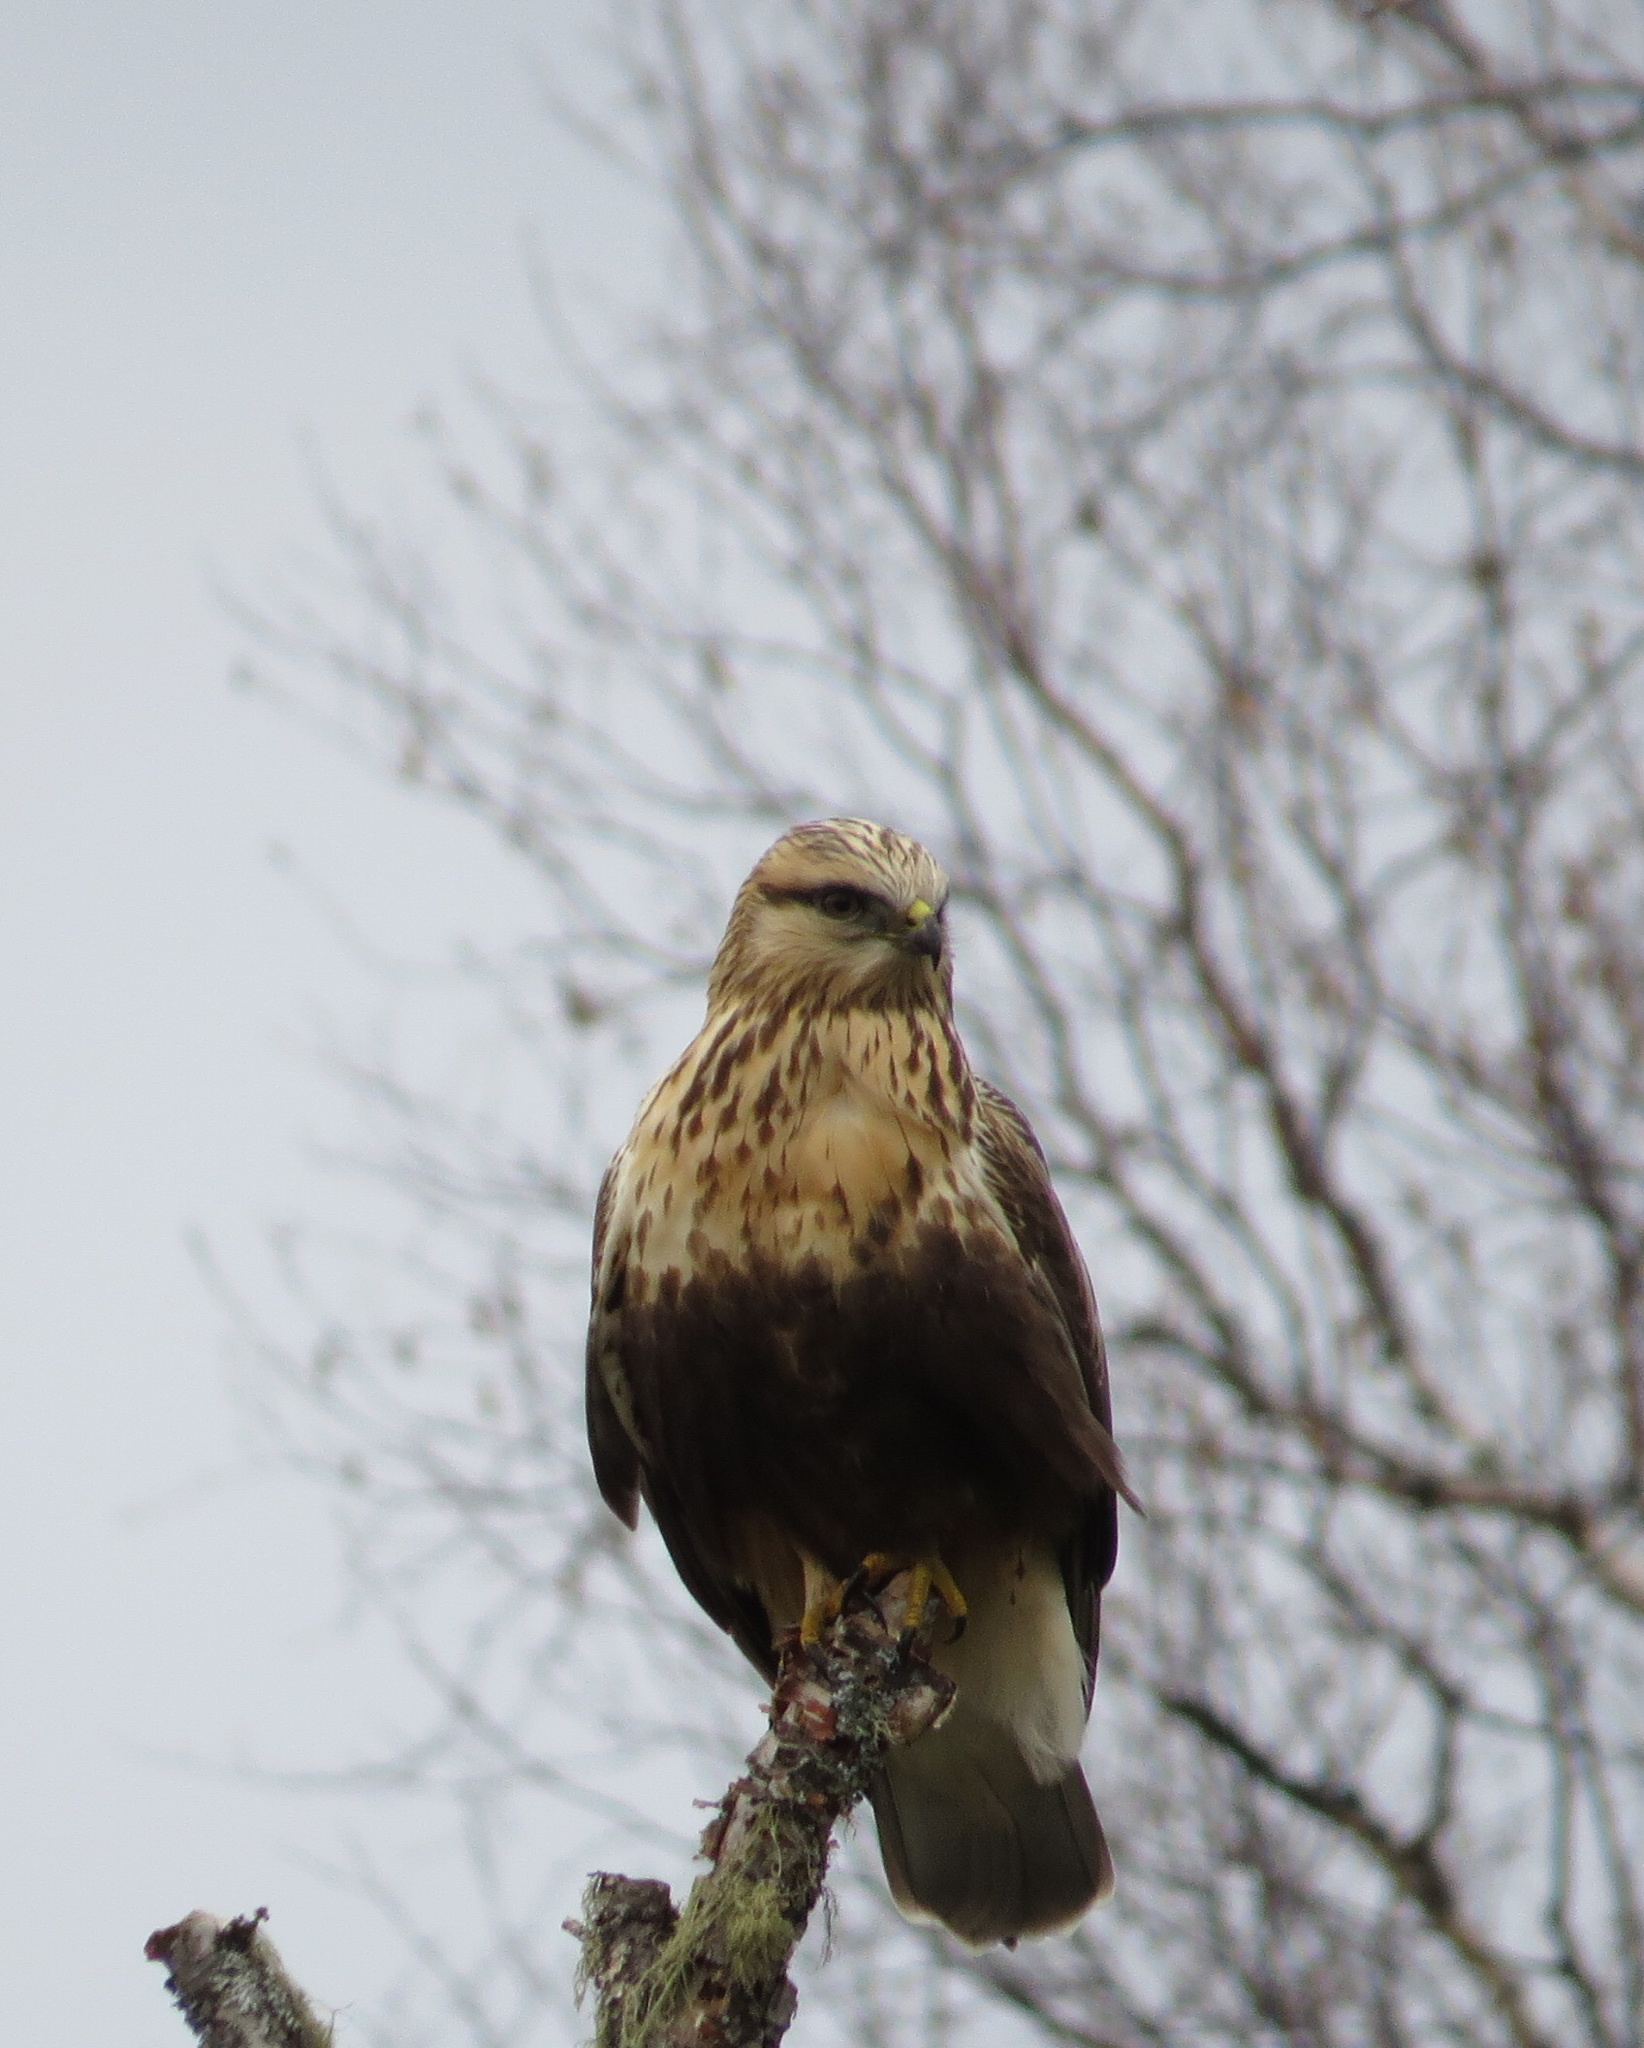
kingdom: Animalia
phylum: Chordata
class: Aves
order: Accipitriformes
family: Accipitridae
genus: Buteo
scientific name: Buteo lagopus
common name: Rough-legged buzzard
